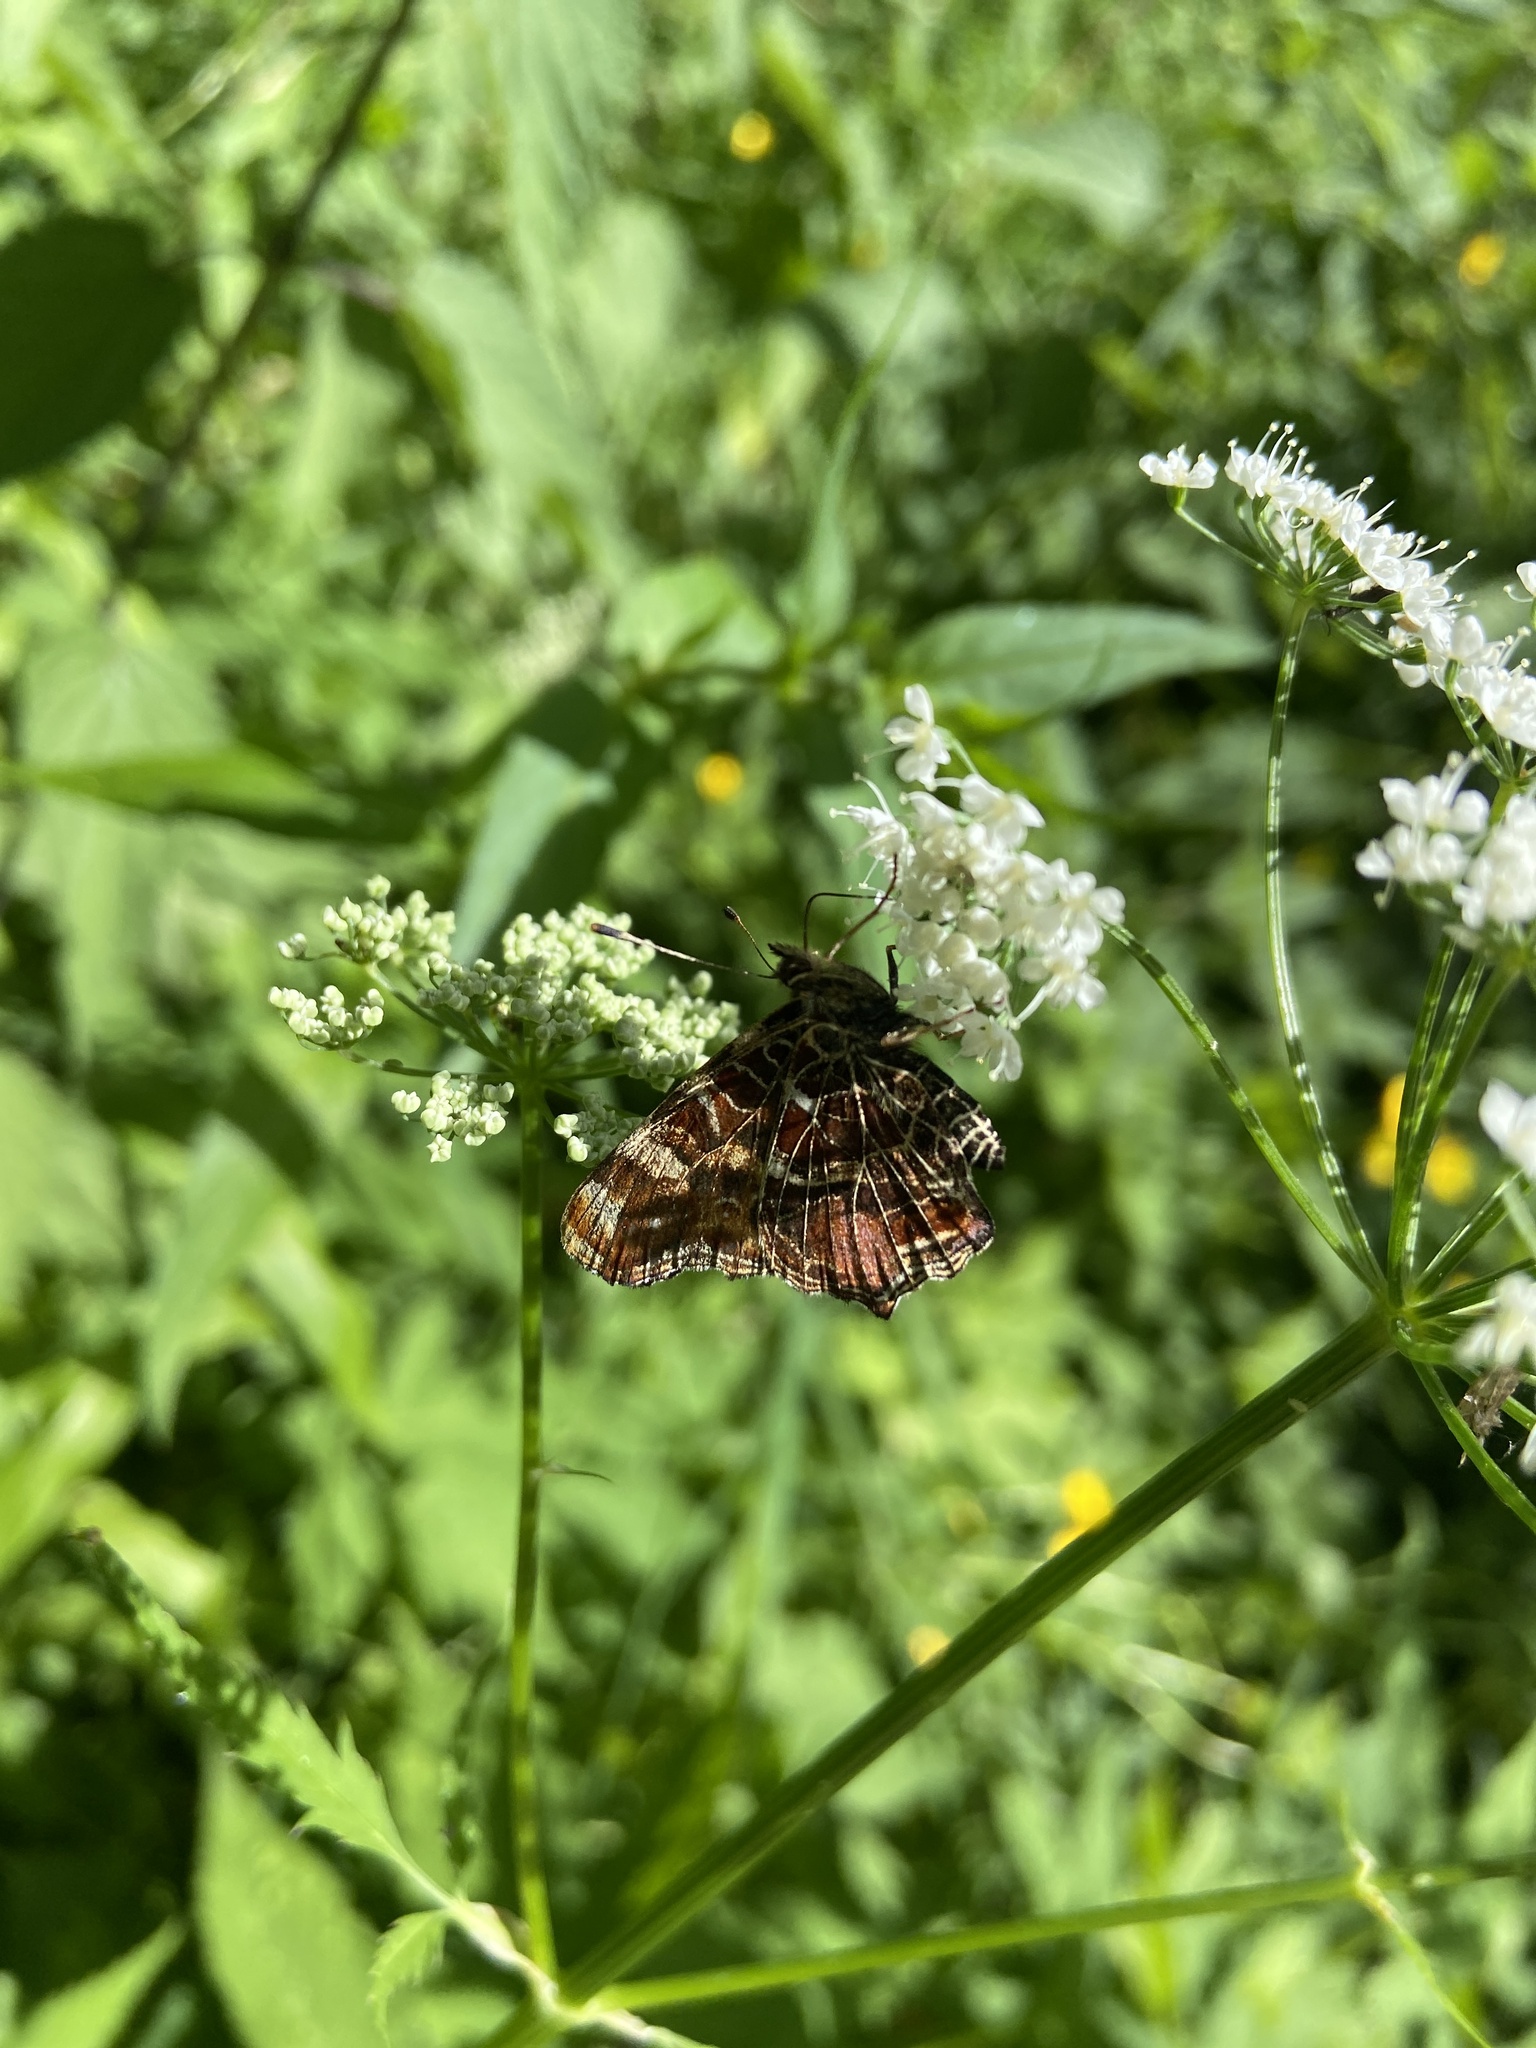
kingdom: Animalia
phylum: Arthropoda
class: Insecta
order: Lepidoptera
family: Nymphalidae
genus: Araschnia
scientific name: Araschnia levana
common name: Map butterfly
